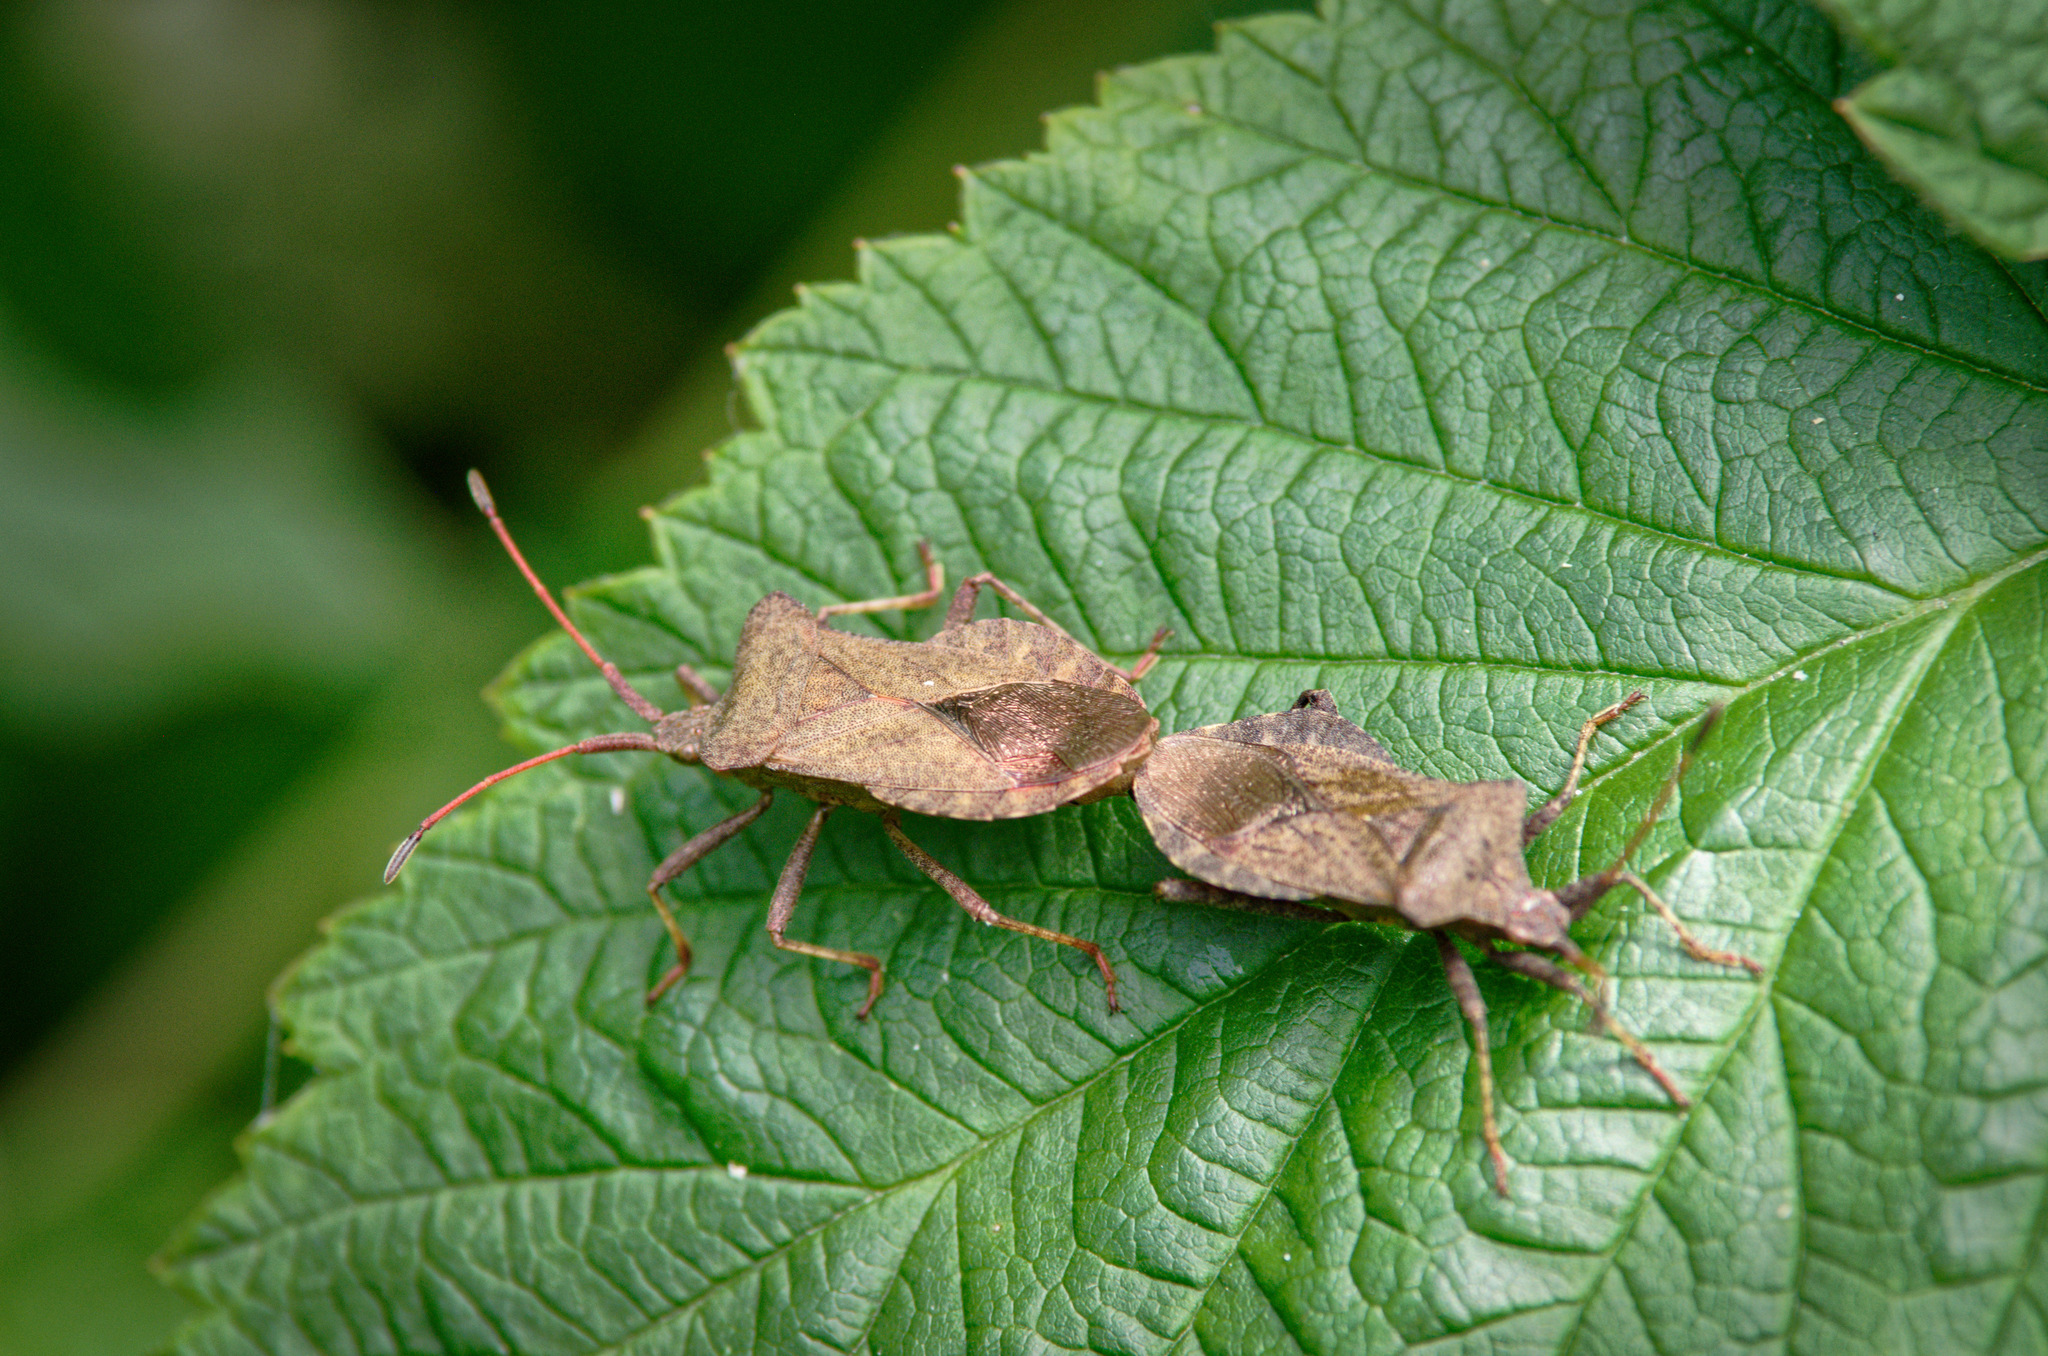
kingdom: Animalia
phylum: Arthropoda
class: Insecta
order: Hemiptera
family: Coreidae
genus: Coreus
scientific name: Coreus marginatus
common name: Dock bug
